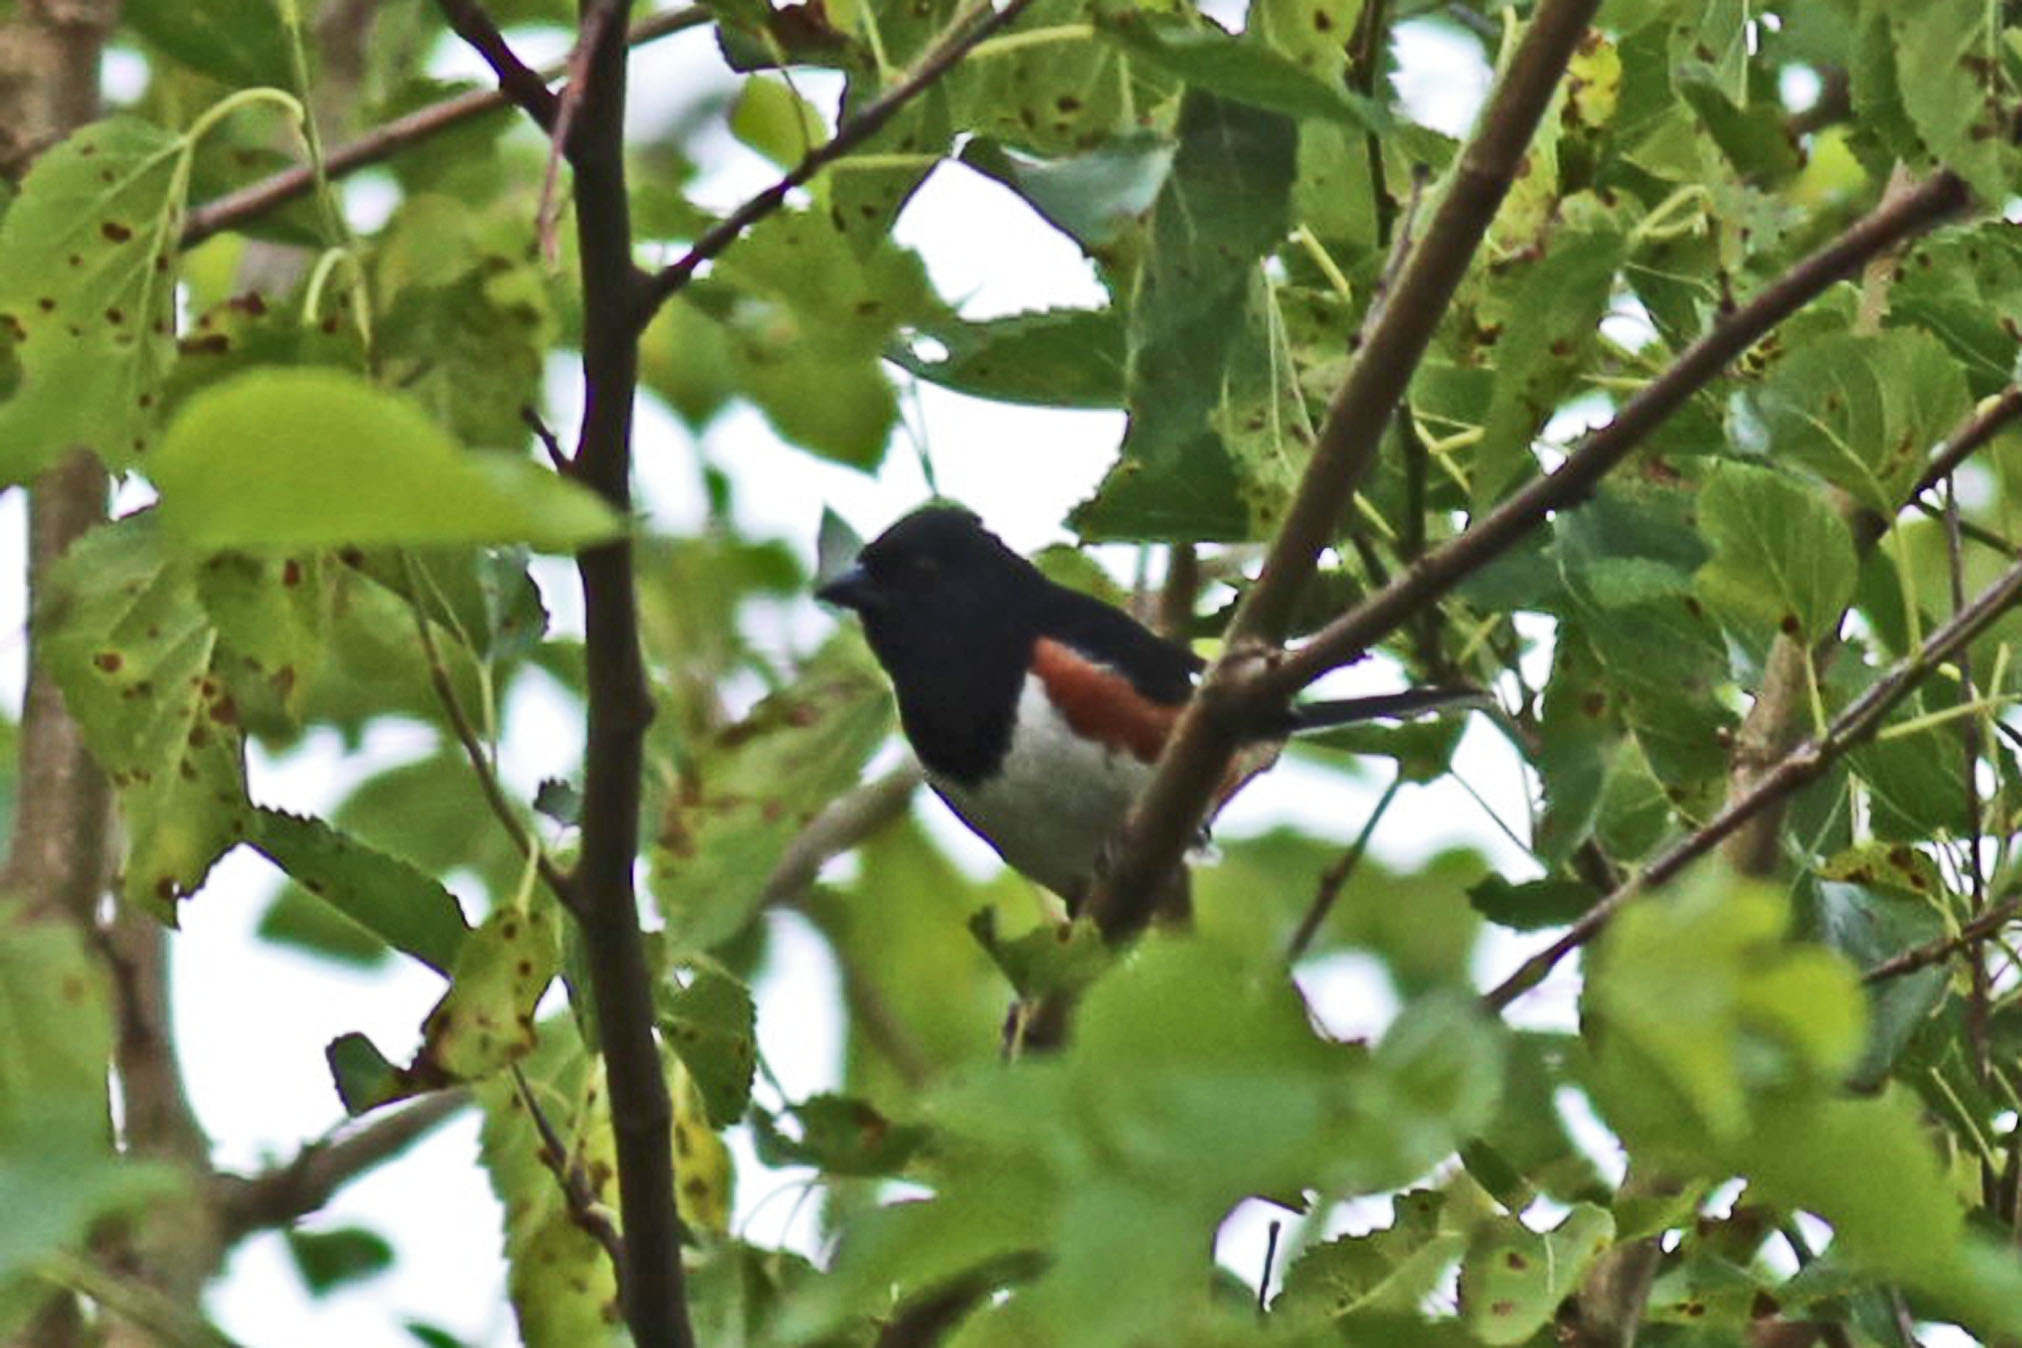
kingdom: Animalia
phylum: Chordata
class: Aves
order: Passeriformes
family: Passerellidae
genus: Pipilo
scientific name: Pipilo erythrophthalmus
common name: Eastern towhee
